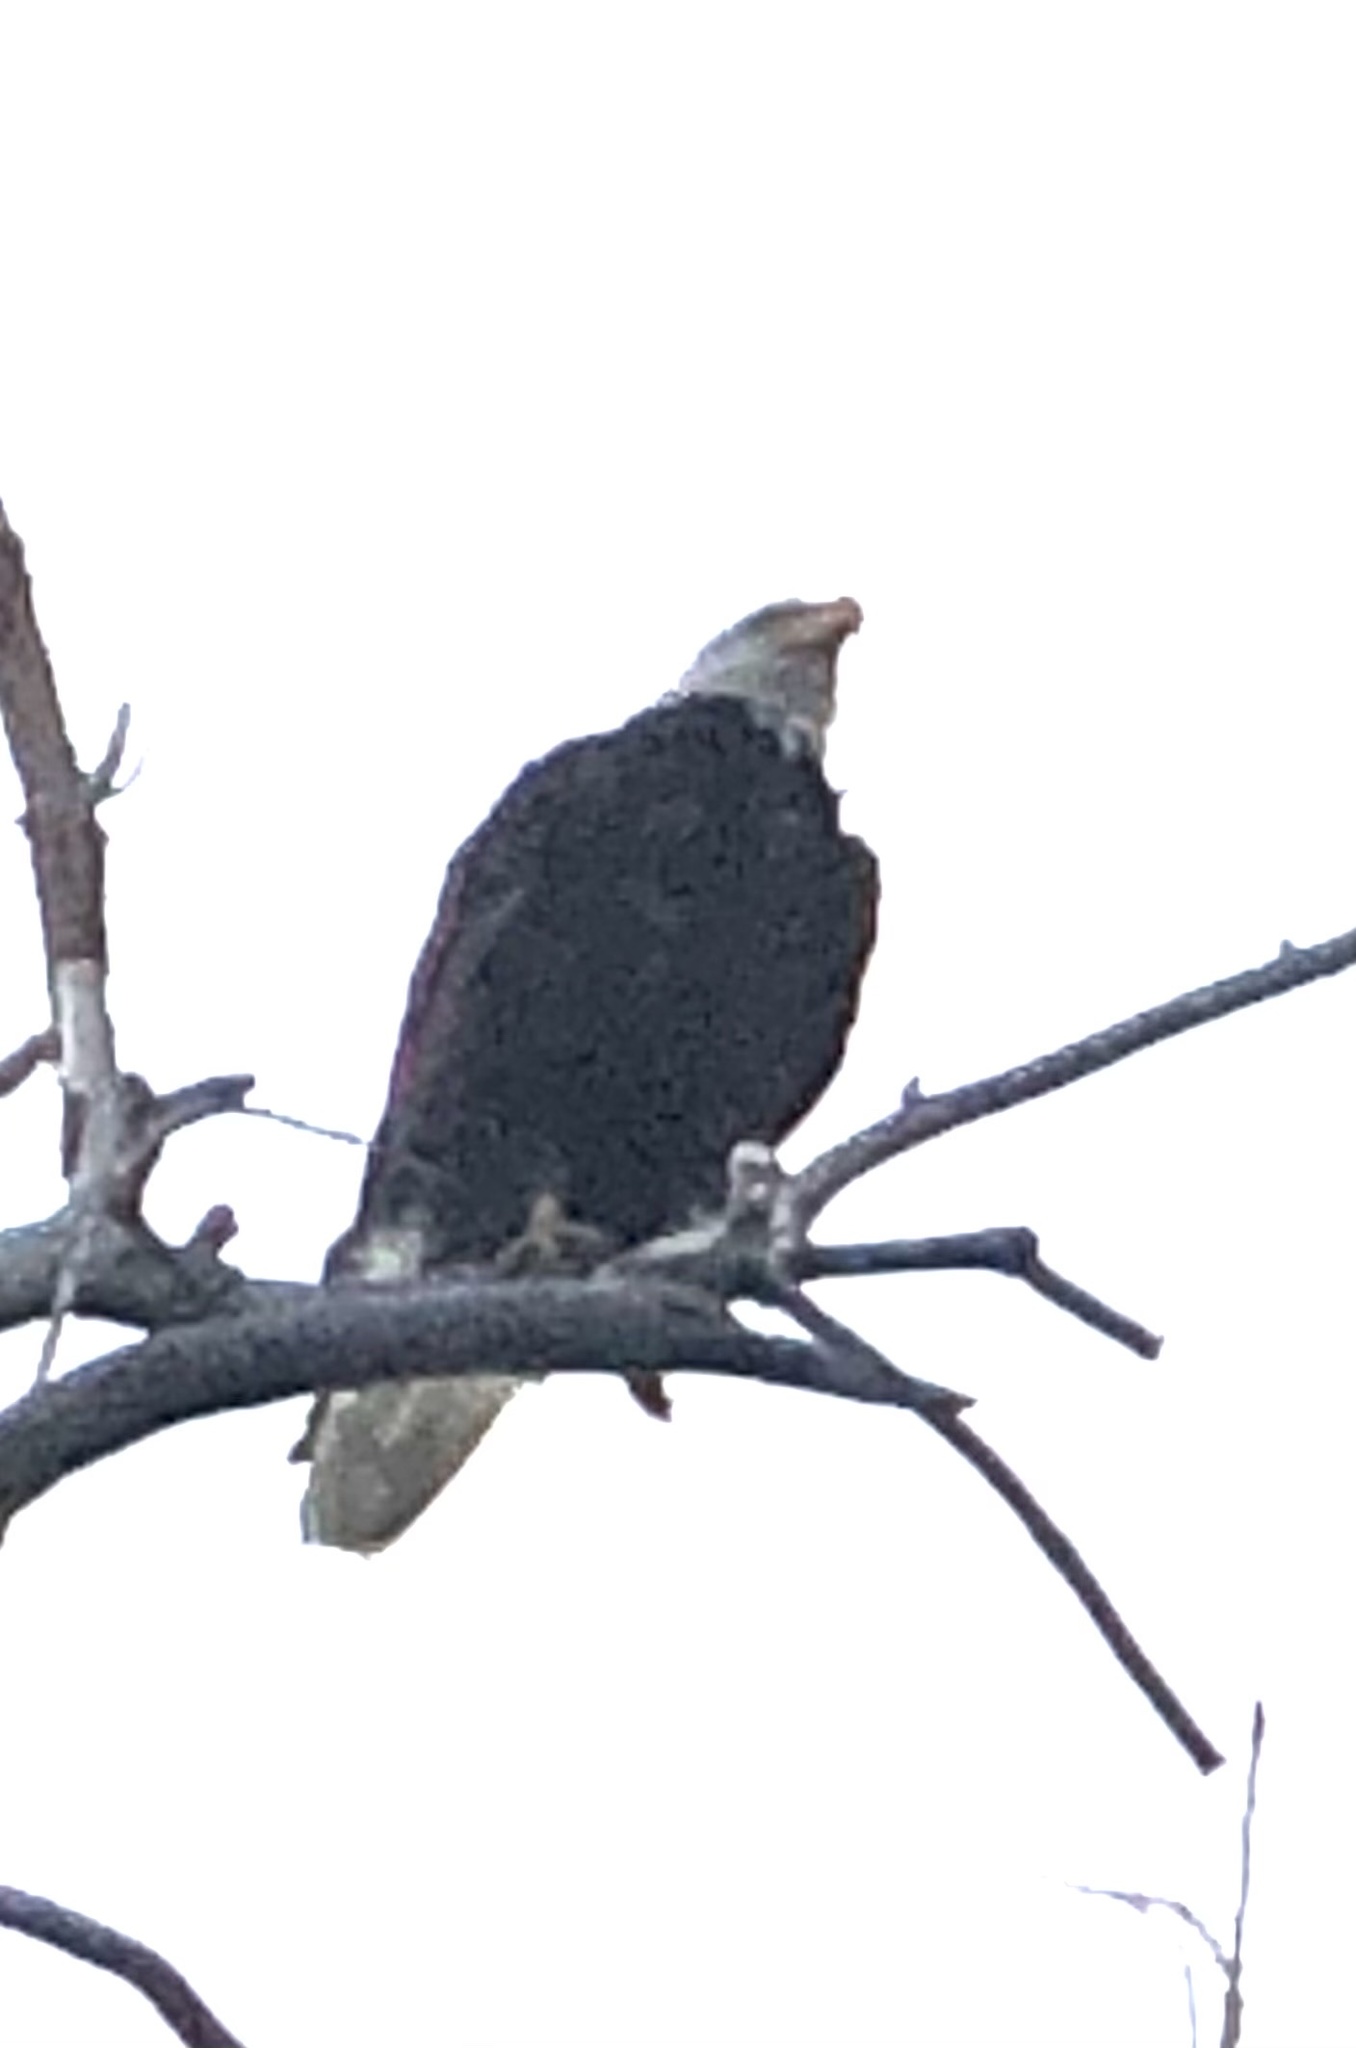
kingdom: Animalia
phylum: Chordata
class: Aves
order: Accipitriformes
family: Accipitridae
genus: Haliaeetus
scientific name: Haliaeetus leucocephalus
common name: Bald eagle
